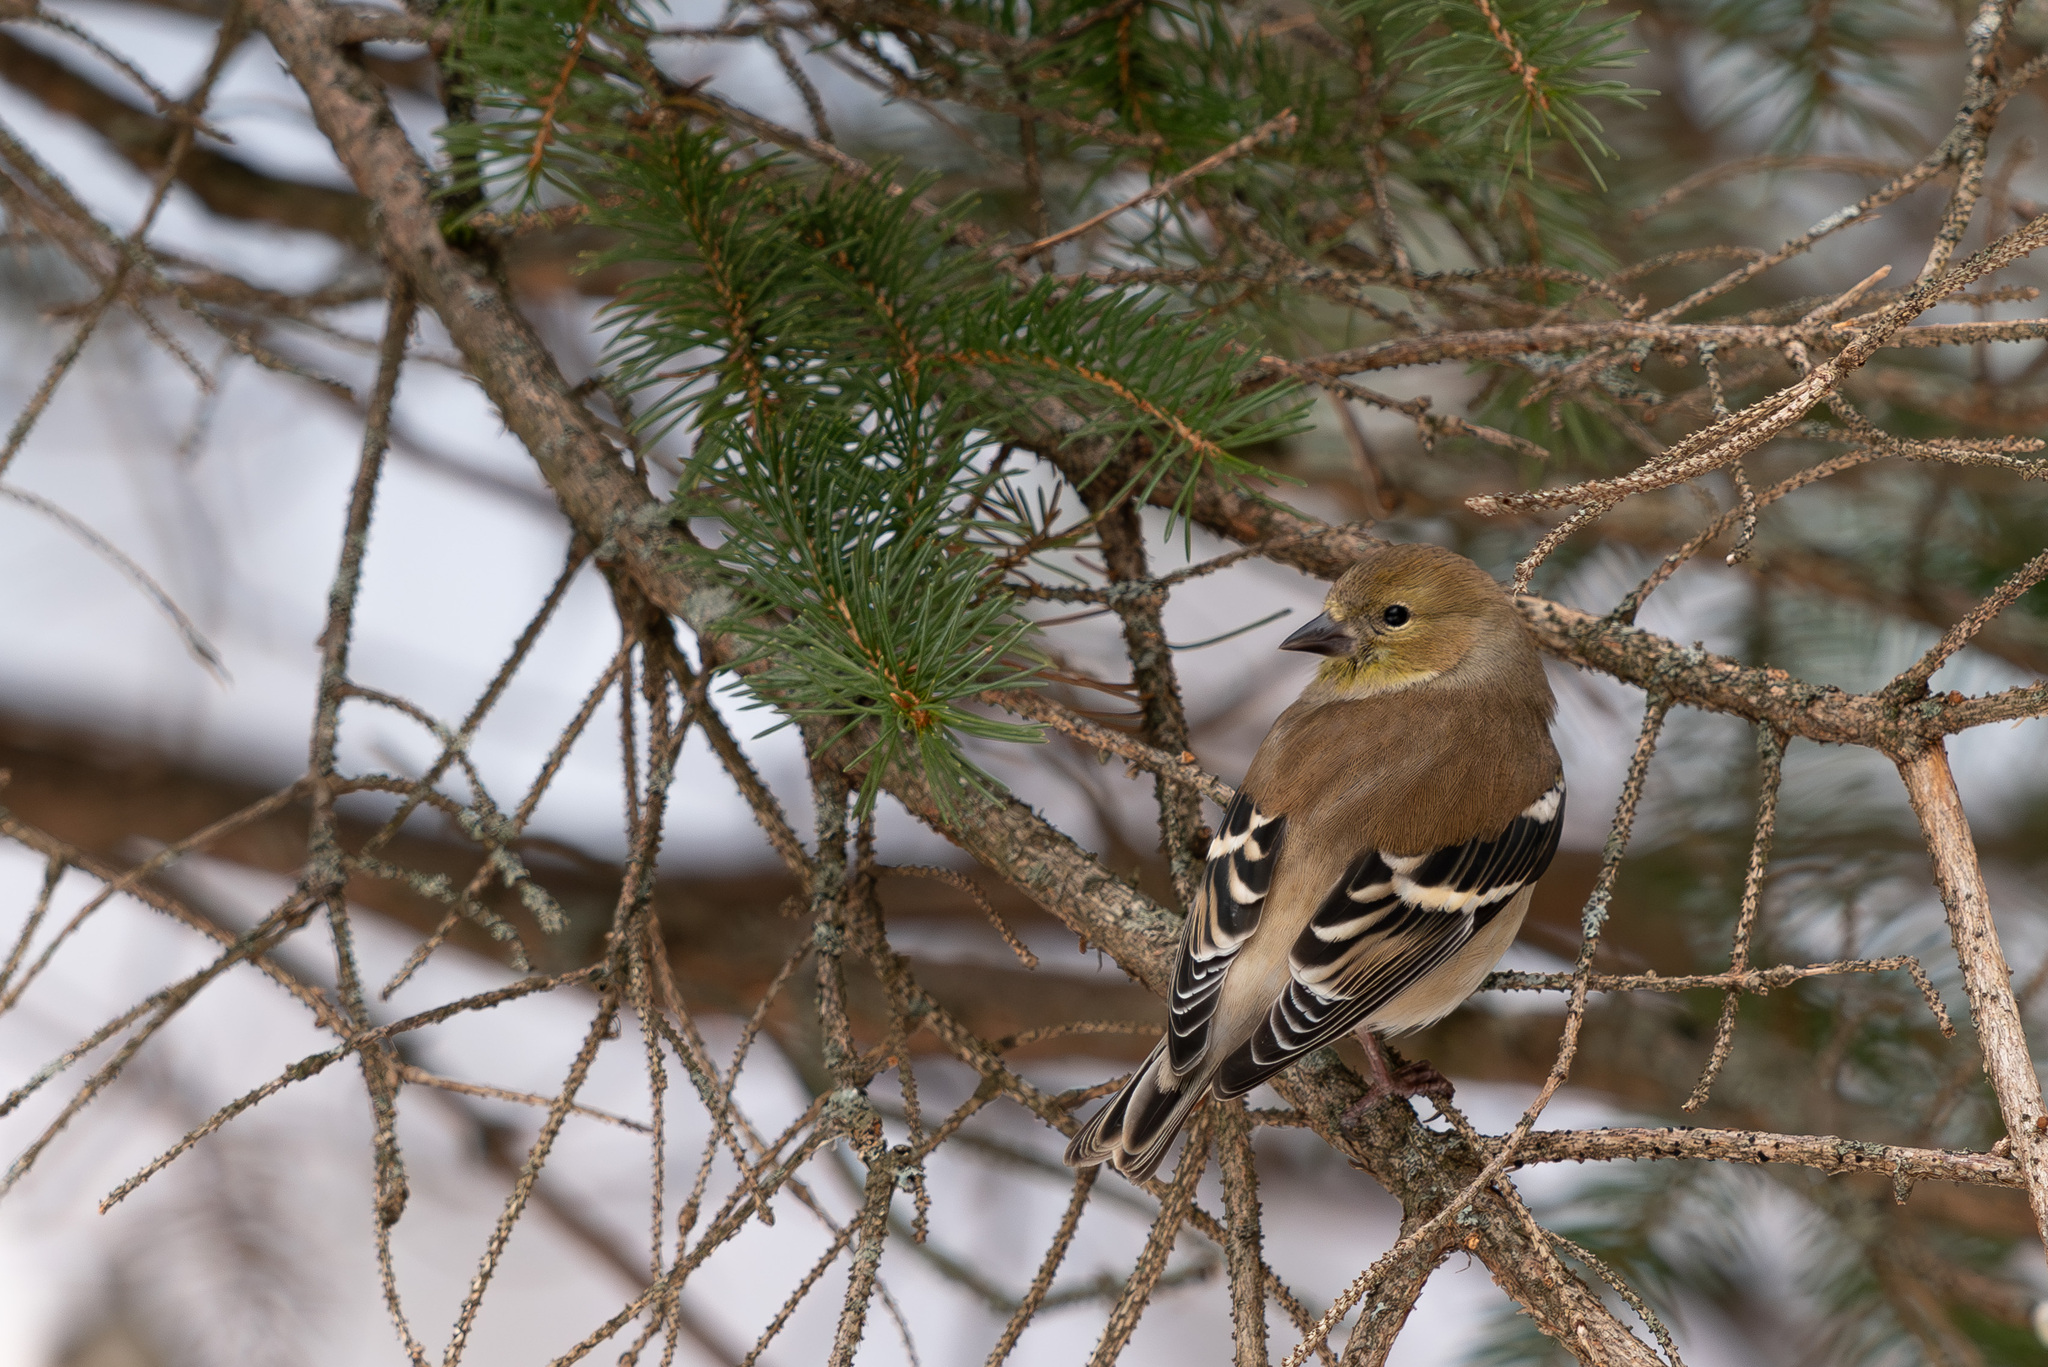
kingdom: Animalia
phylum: Chordata
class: Aves
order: Passeriformes
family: Fringillidae
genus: Spinus
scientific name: Spinus tristis
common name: American goldfinch
